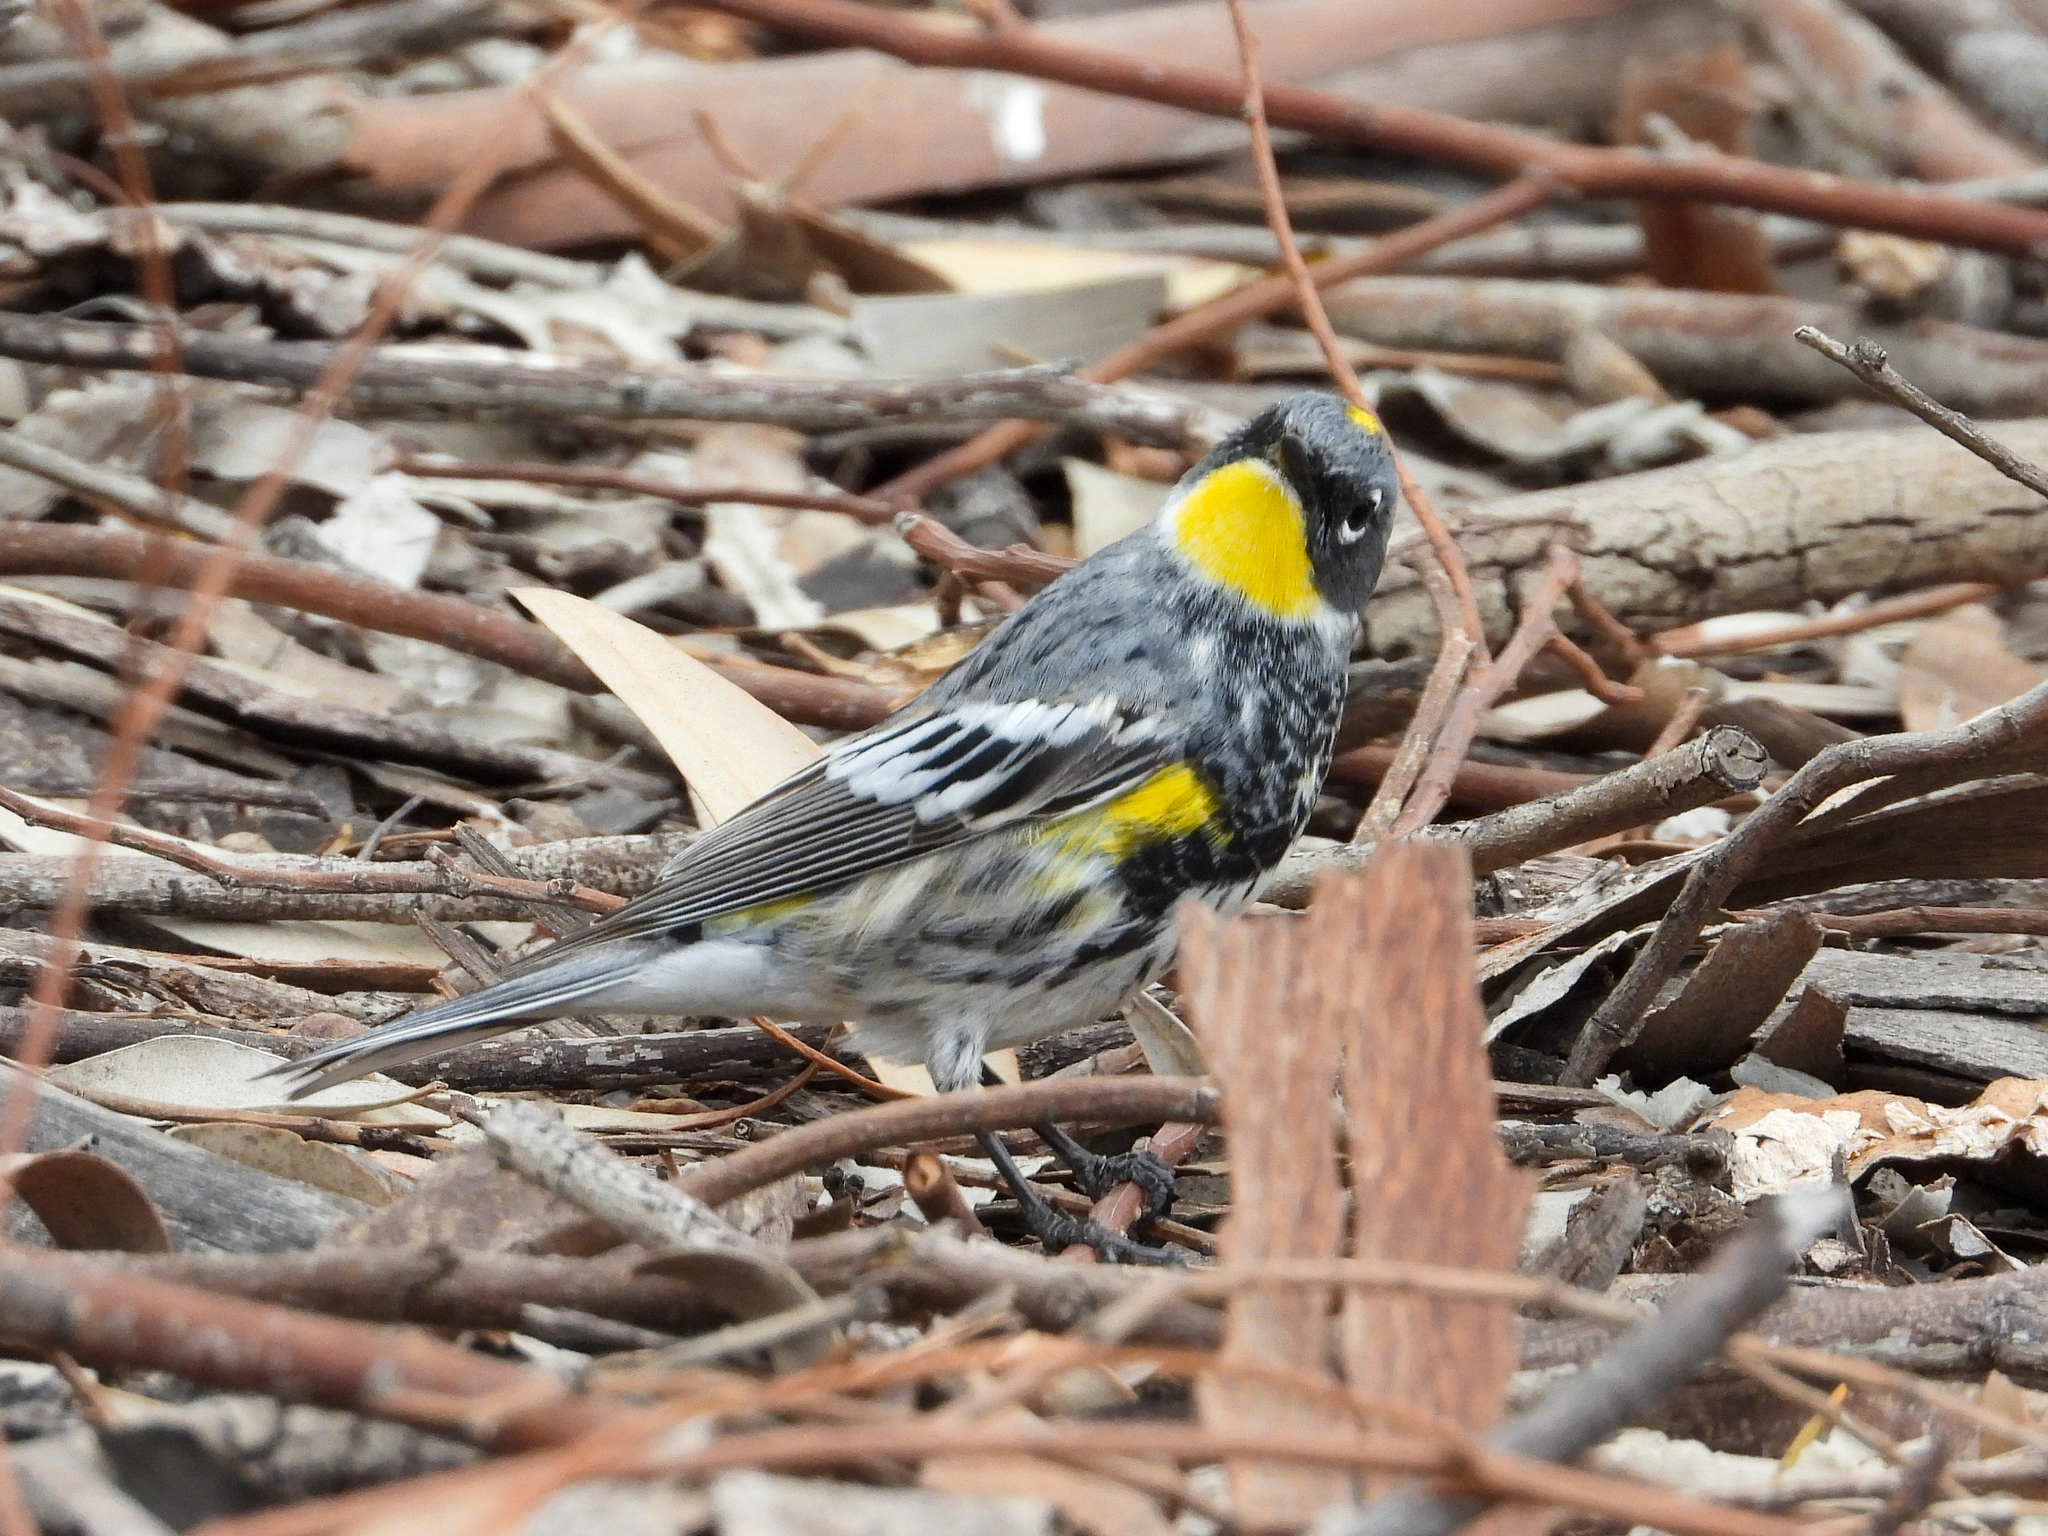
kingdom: Animalia
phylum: Chordata
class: Aves
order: Passeriformes
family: Parulidae
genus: Setophaga
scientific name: Setophaga
